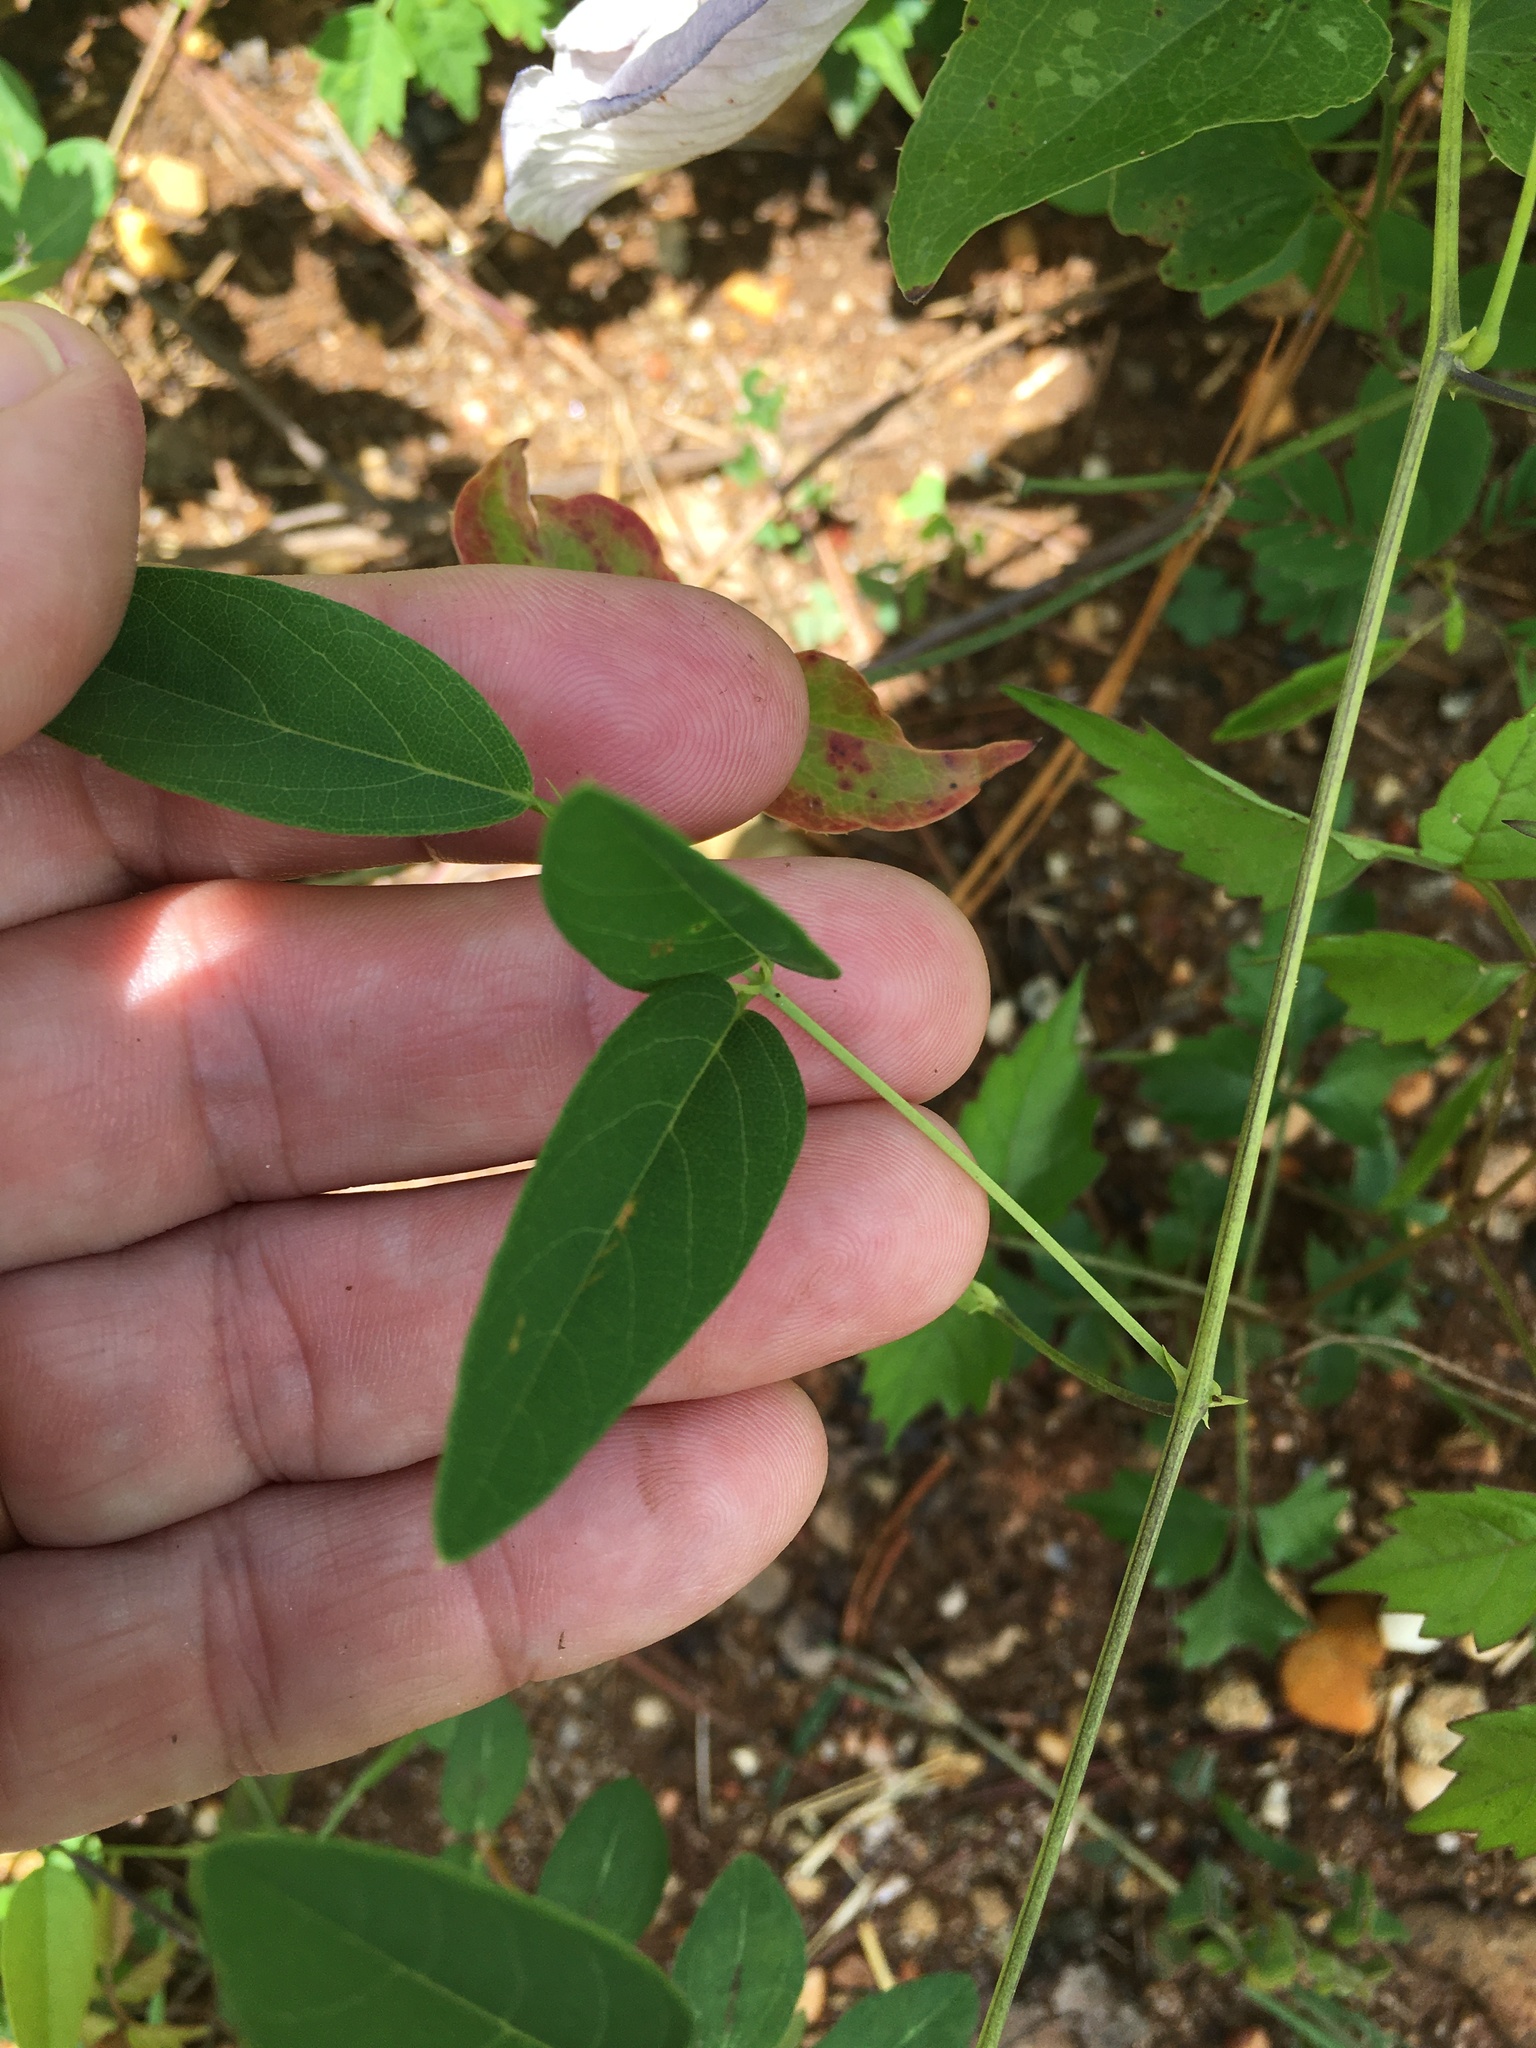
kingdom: Plantae
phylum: Tracheophyta
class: Magnoliopsida
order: Fabales
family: Fabaceae
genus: Clitoria
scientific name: Clitoria mariana
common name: Butterfly-pea
